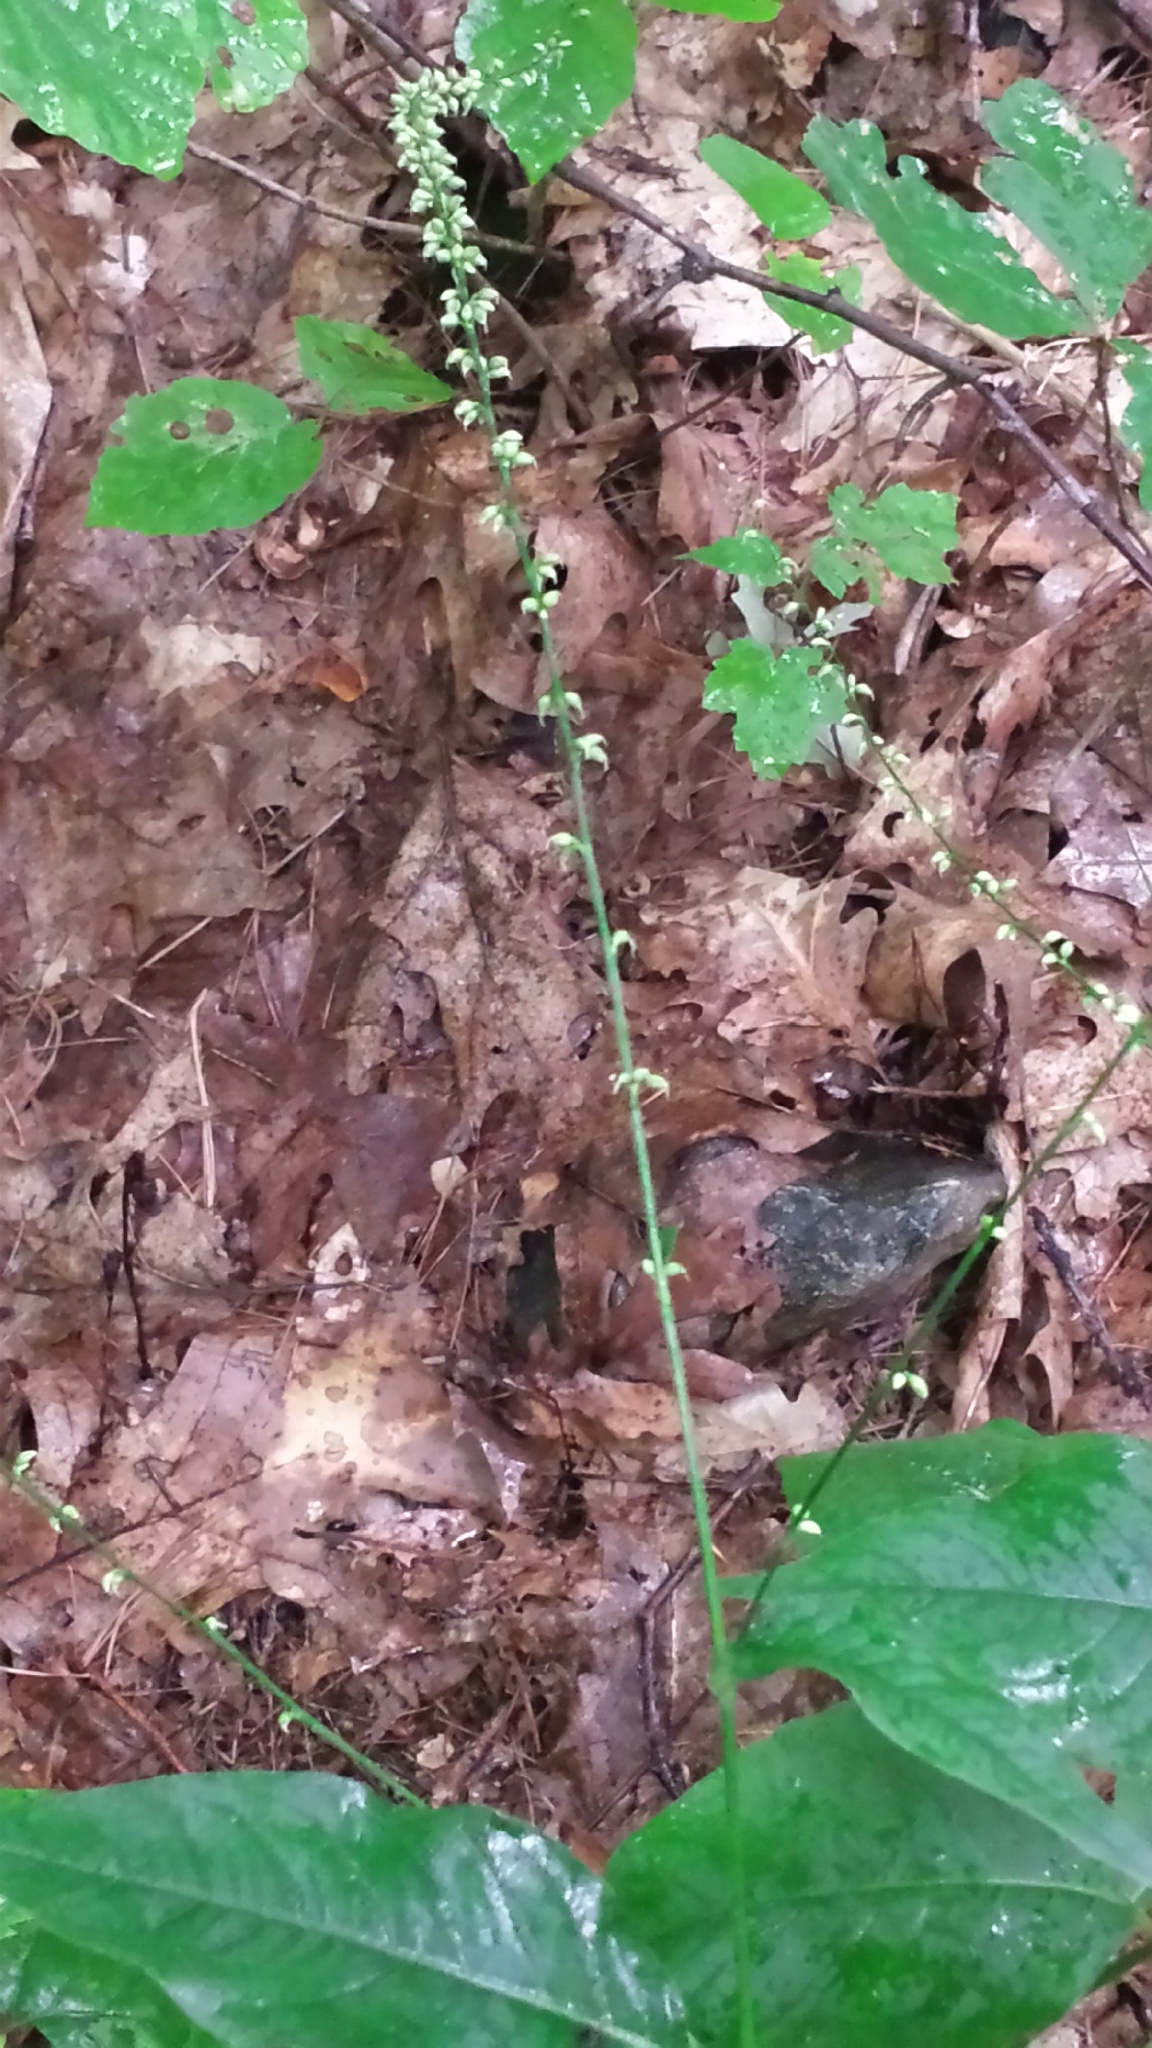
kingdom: Plantae
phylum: Tracheophyta
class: Magnoliopsida
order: Caryophyllales
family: Polygonaceae
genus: Persicaria
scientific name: Persicaria virginiana
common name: Jumpseed
